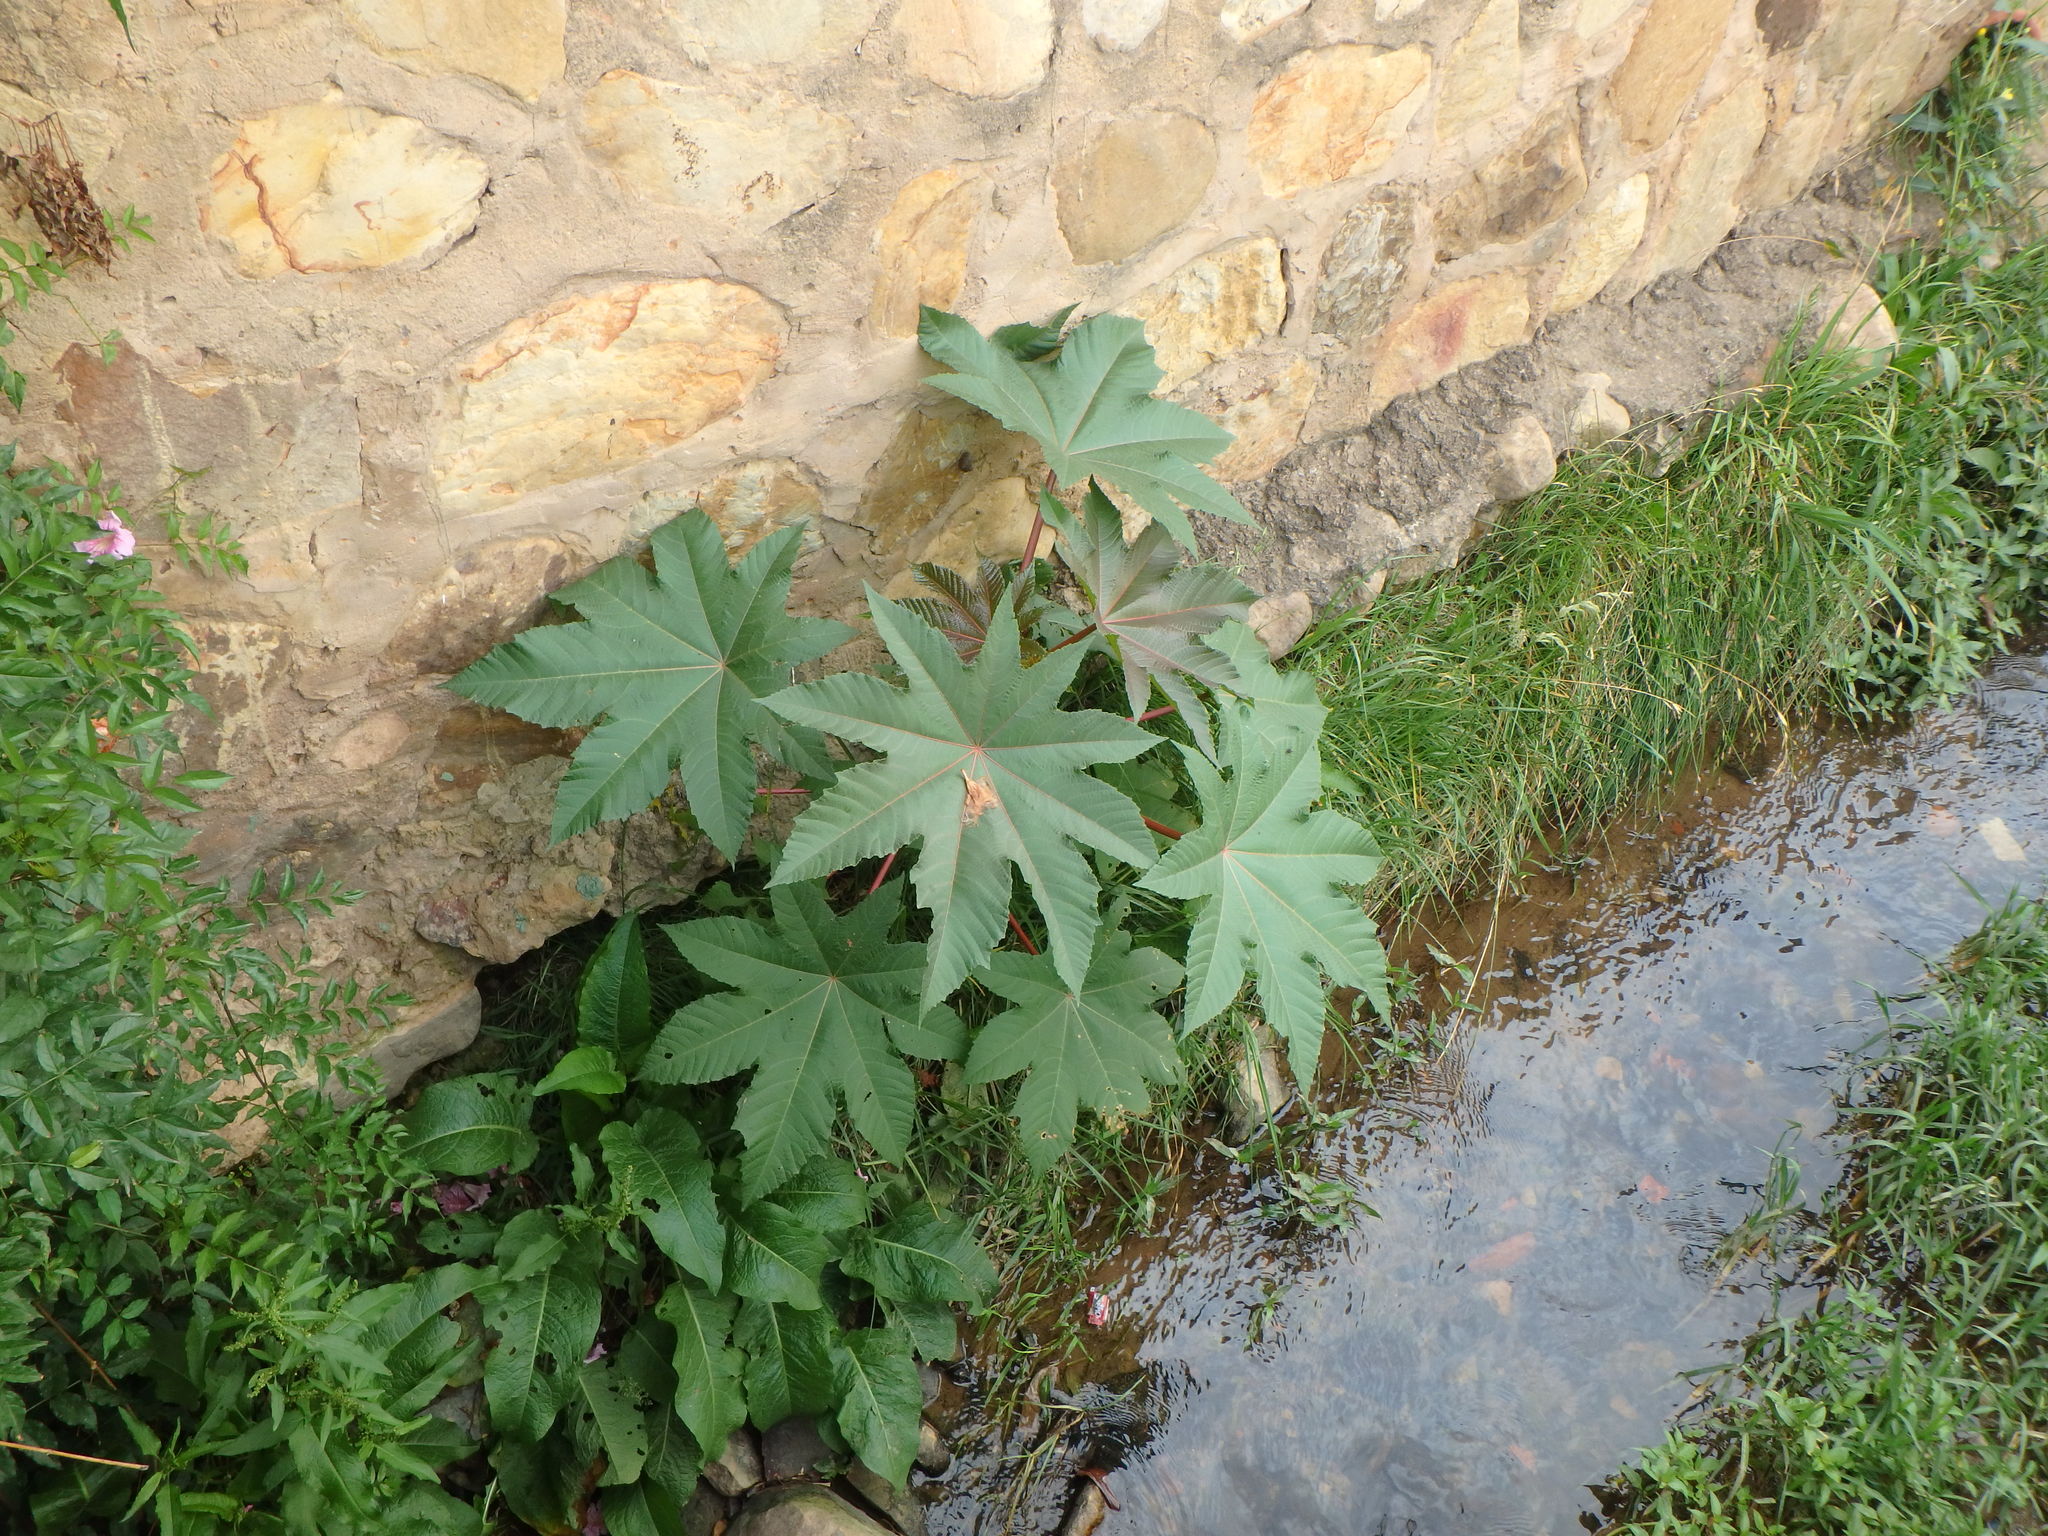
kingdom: Plantae
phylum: Tracheophyta
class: Magnoliopsida
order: Malpighiales
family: Euphorbiaceae
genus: Ricinus
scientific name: Ricinus communis
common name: Castor-oil-plant
